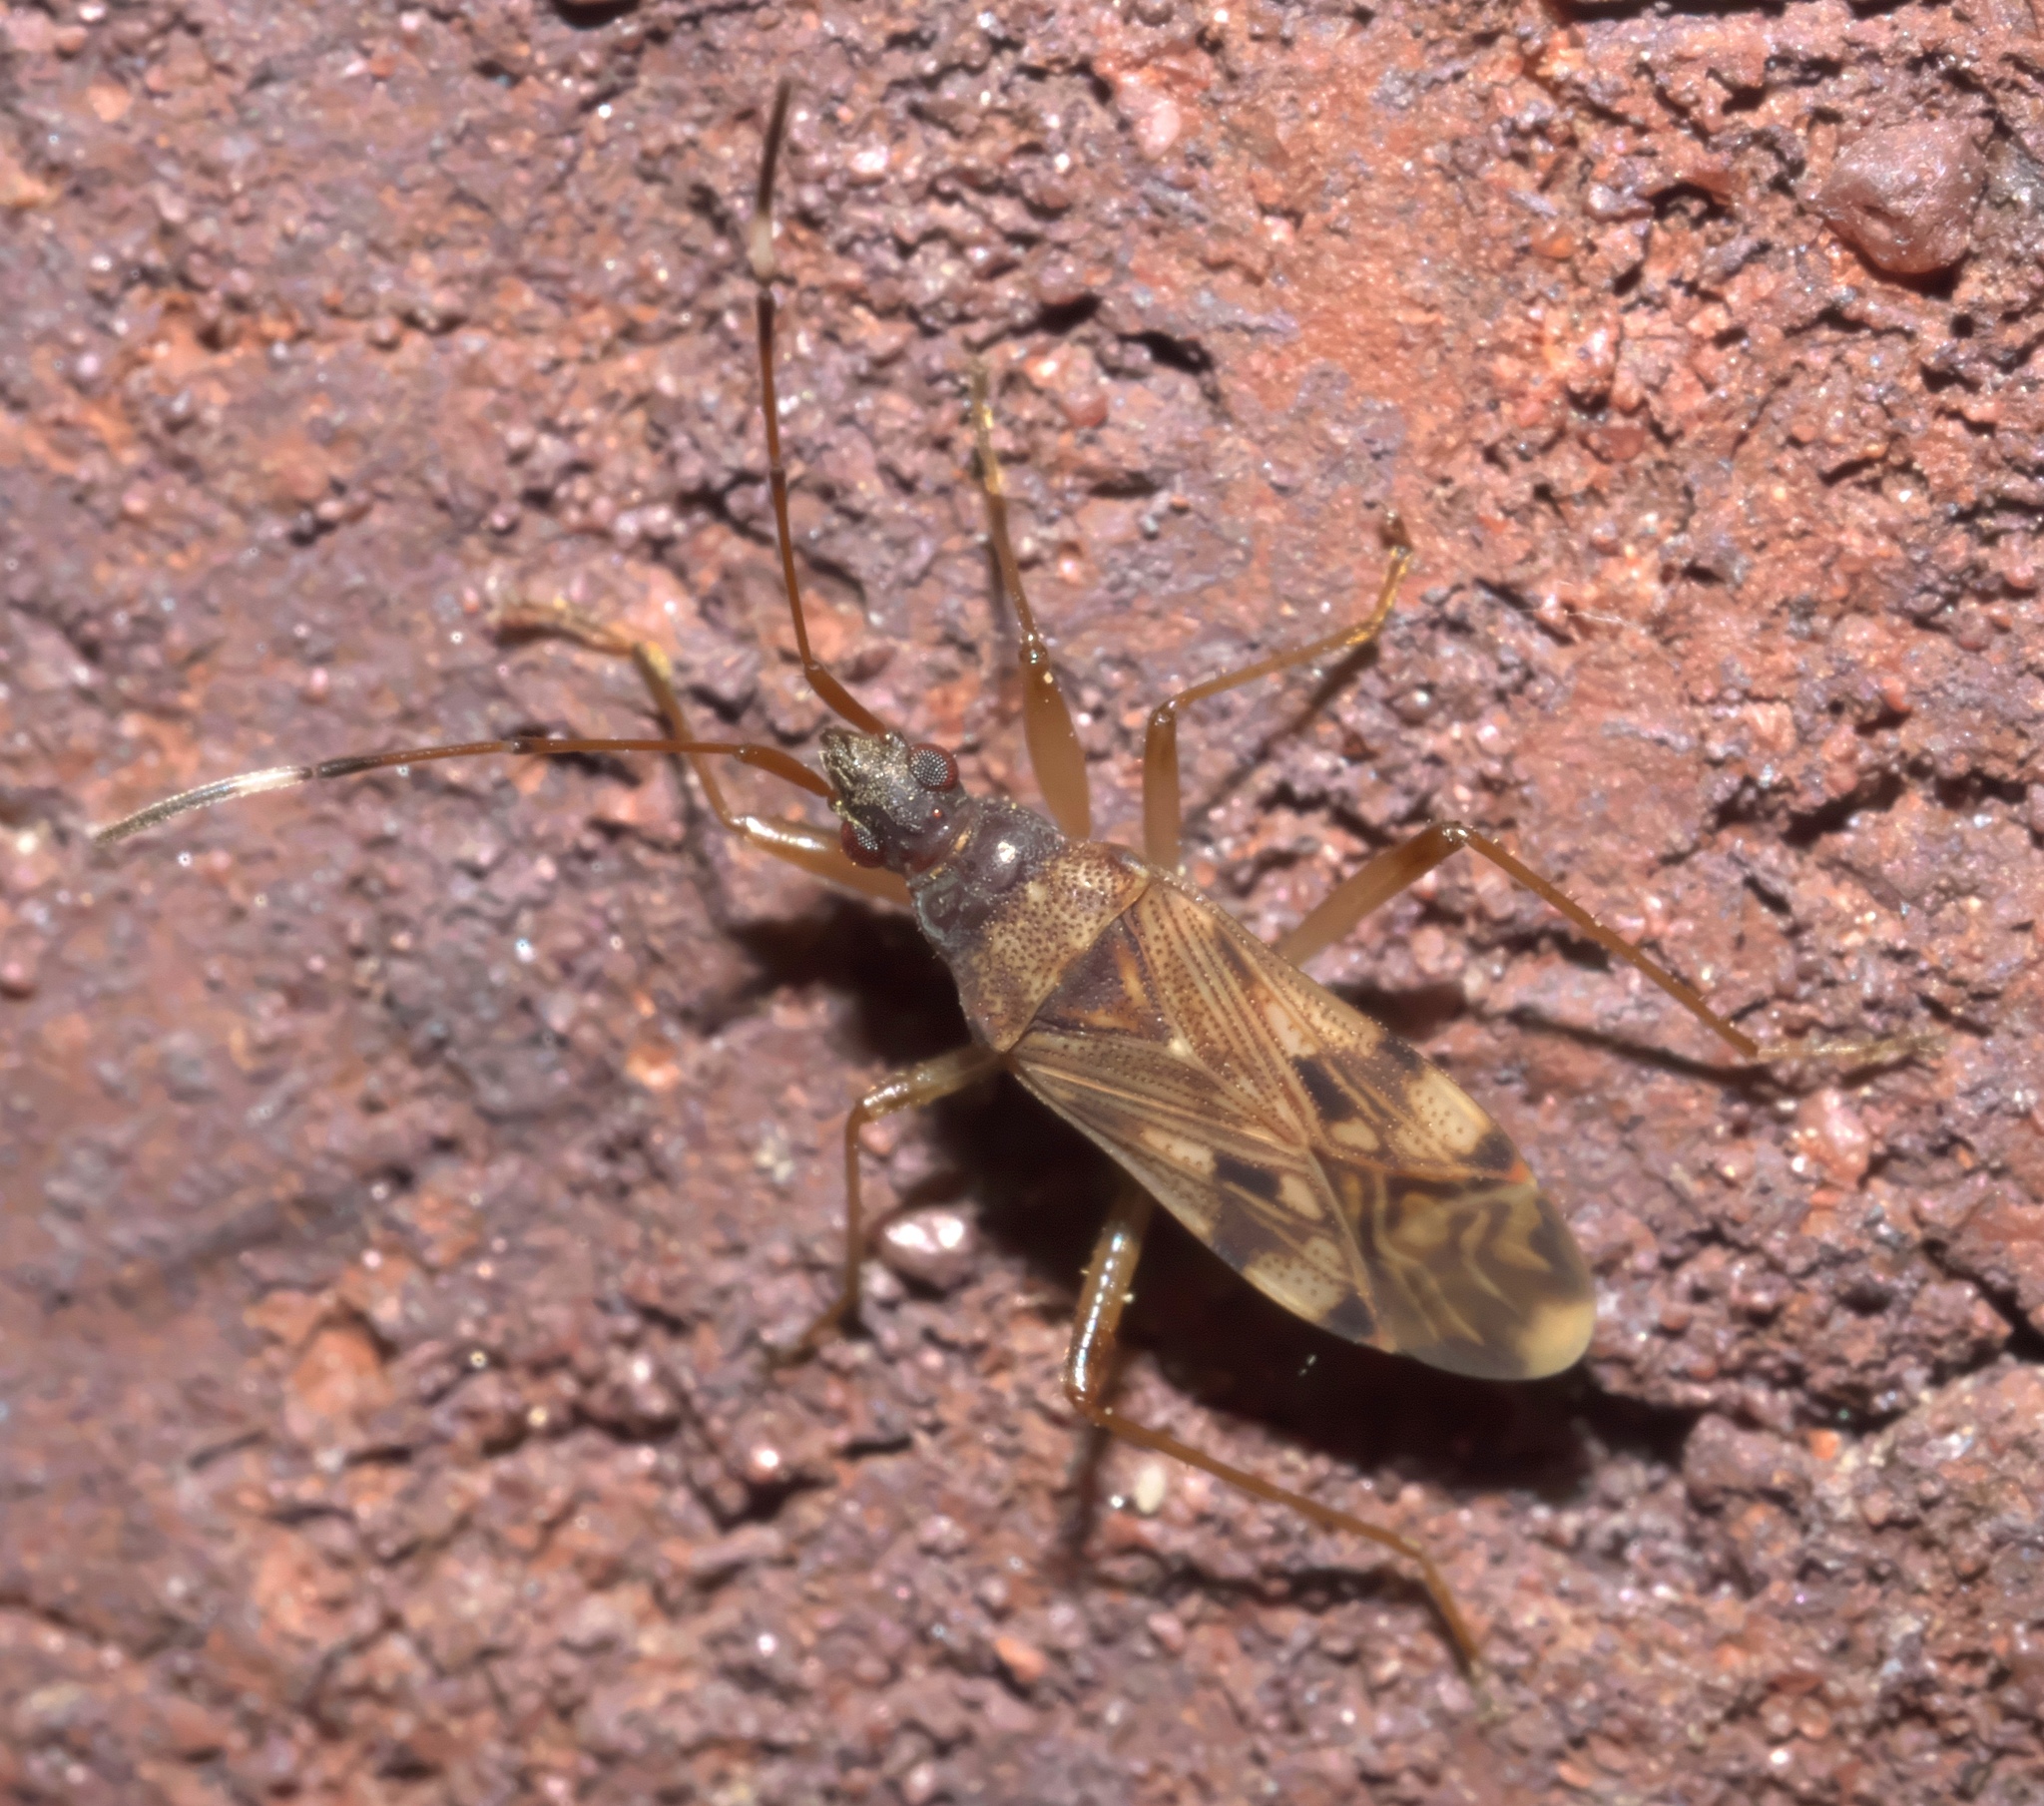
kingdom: Animalia
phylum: Arthropoda
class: Insecta
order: Hemiptera
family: Rhyparochromidae
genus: Ozophora
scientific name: Ozophora picturata
